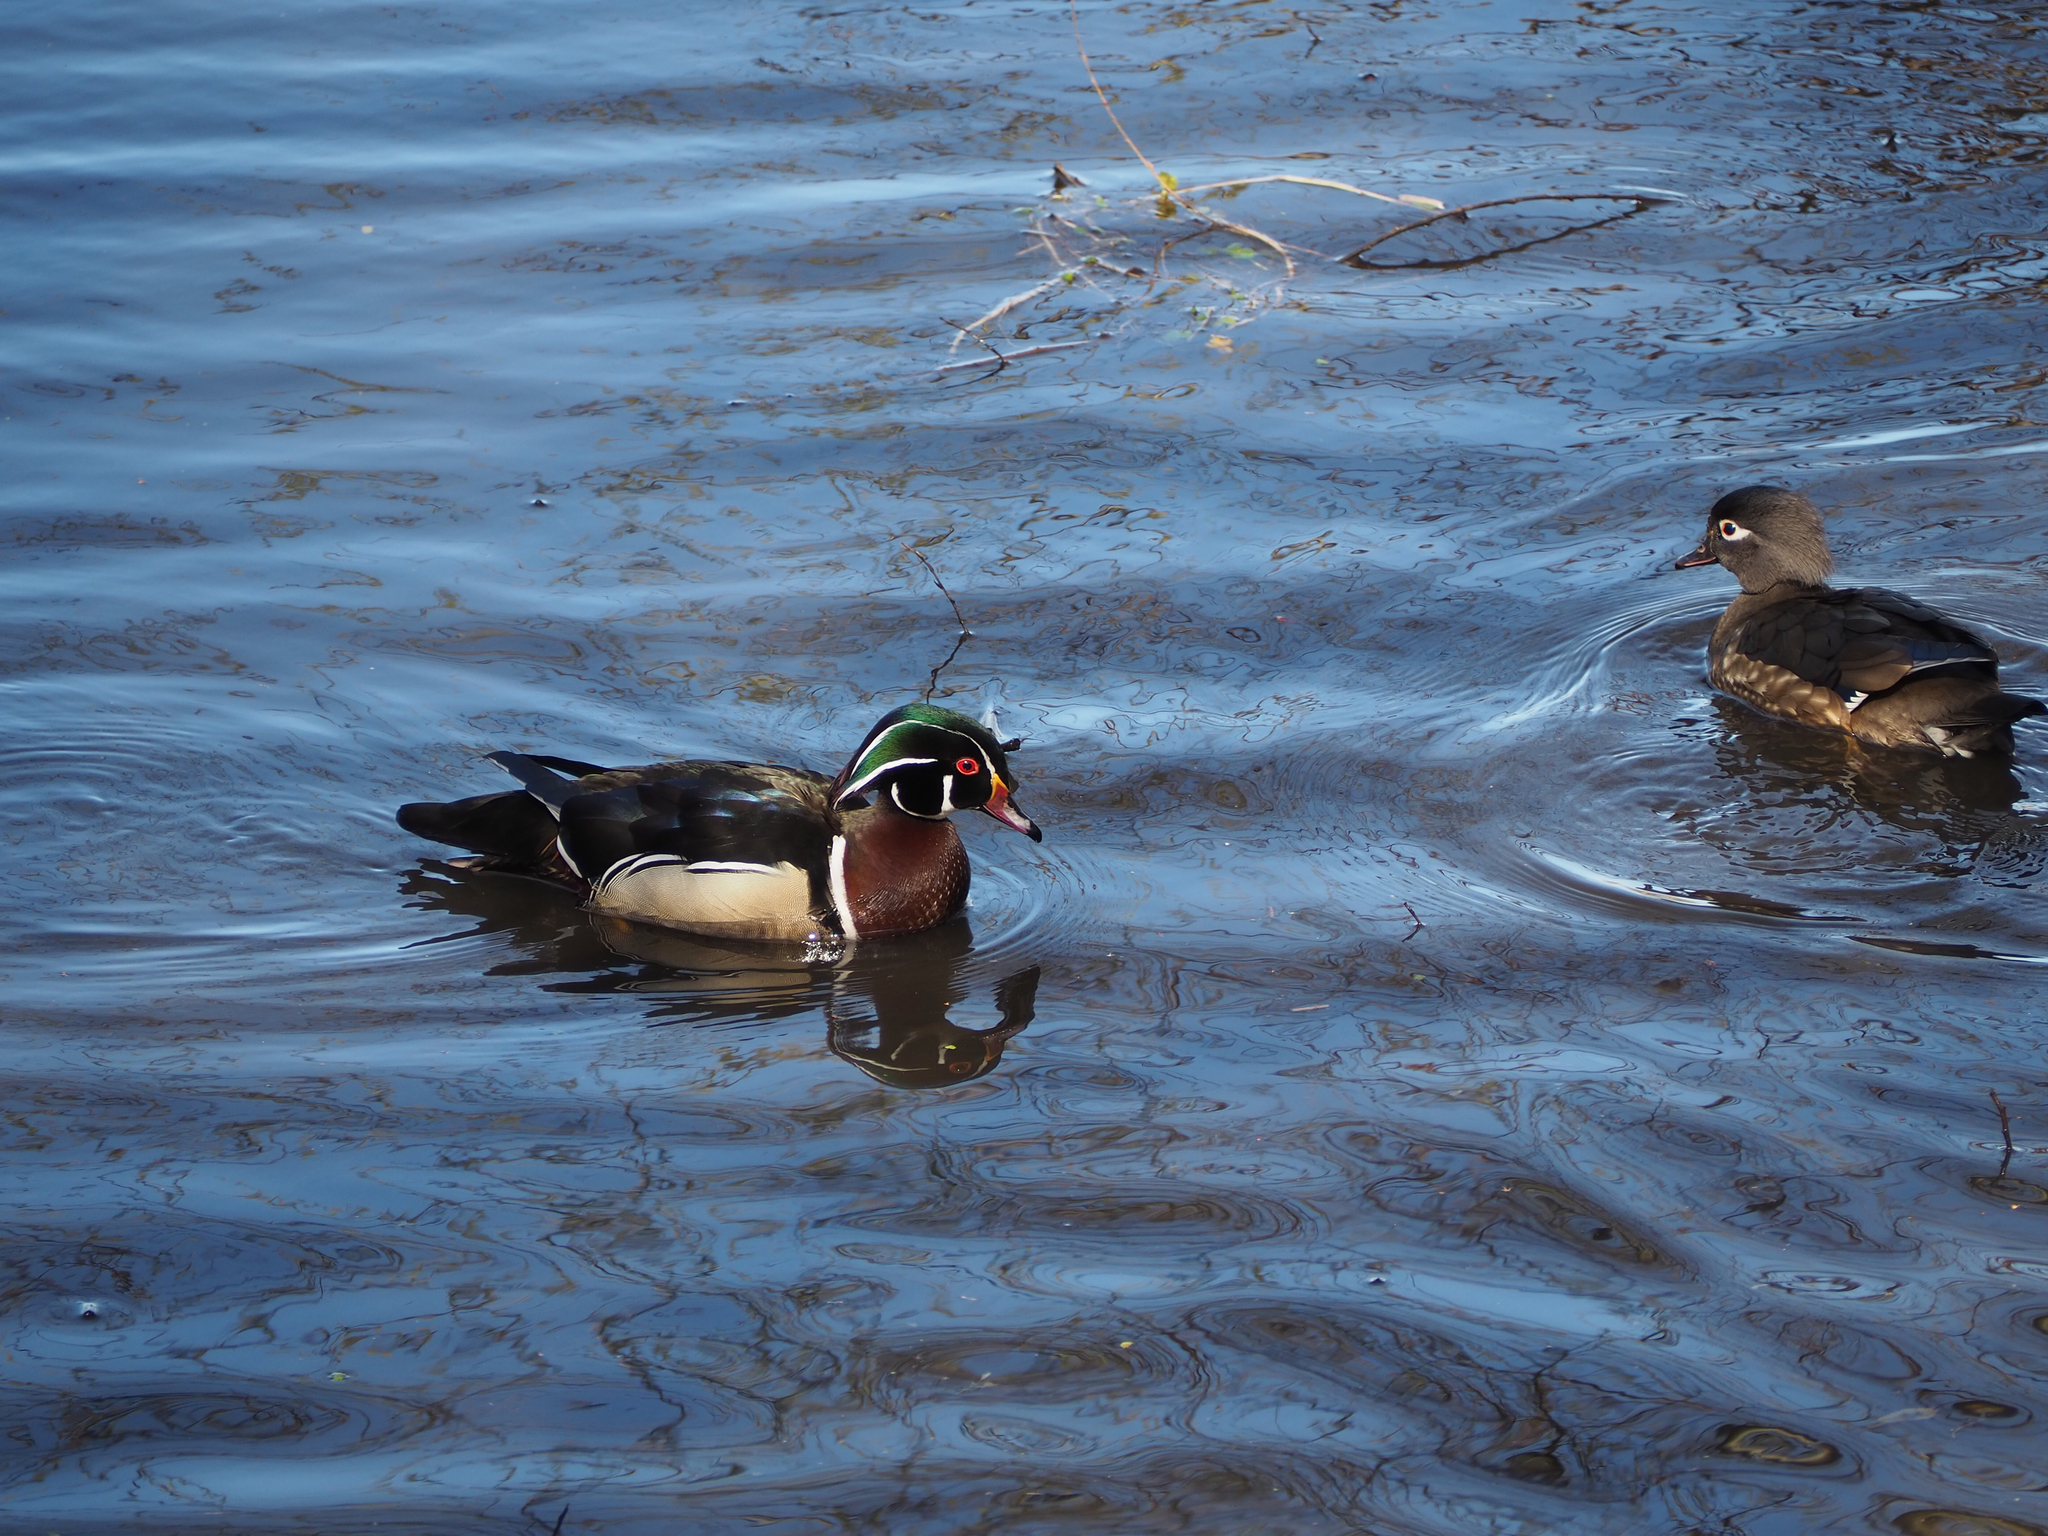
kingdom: Animalia
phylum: Chordata
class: Aves
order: Anseriformes
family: Anatidae
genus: Aix
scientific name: Aix sponsa
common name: Wood duck
